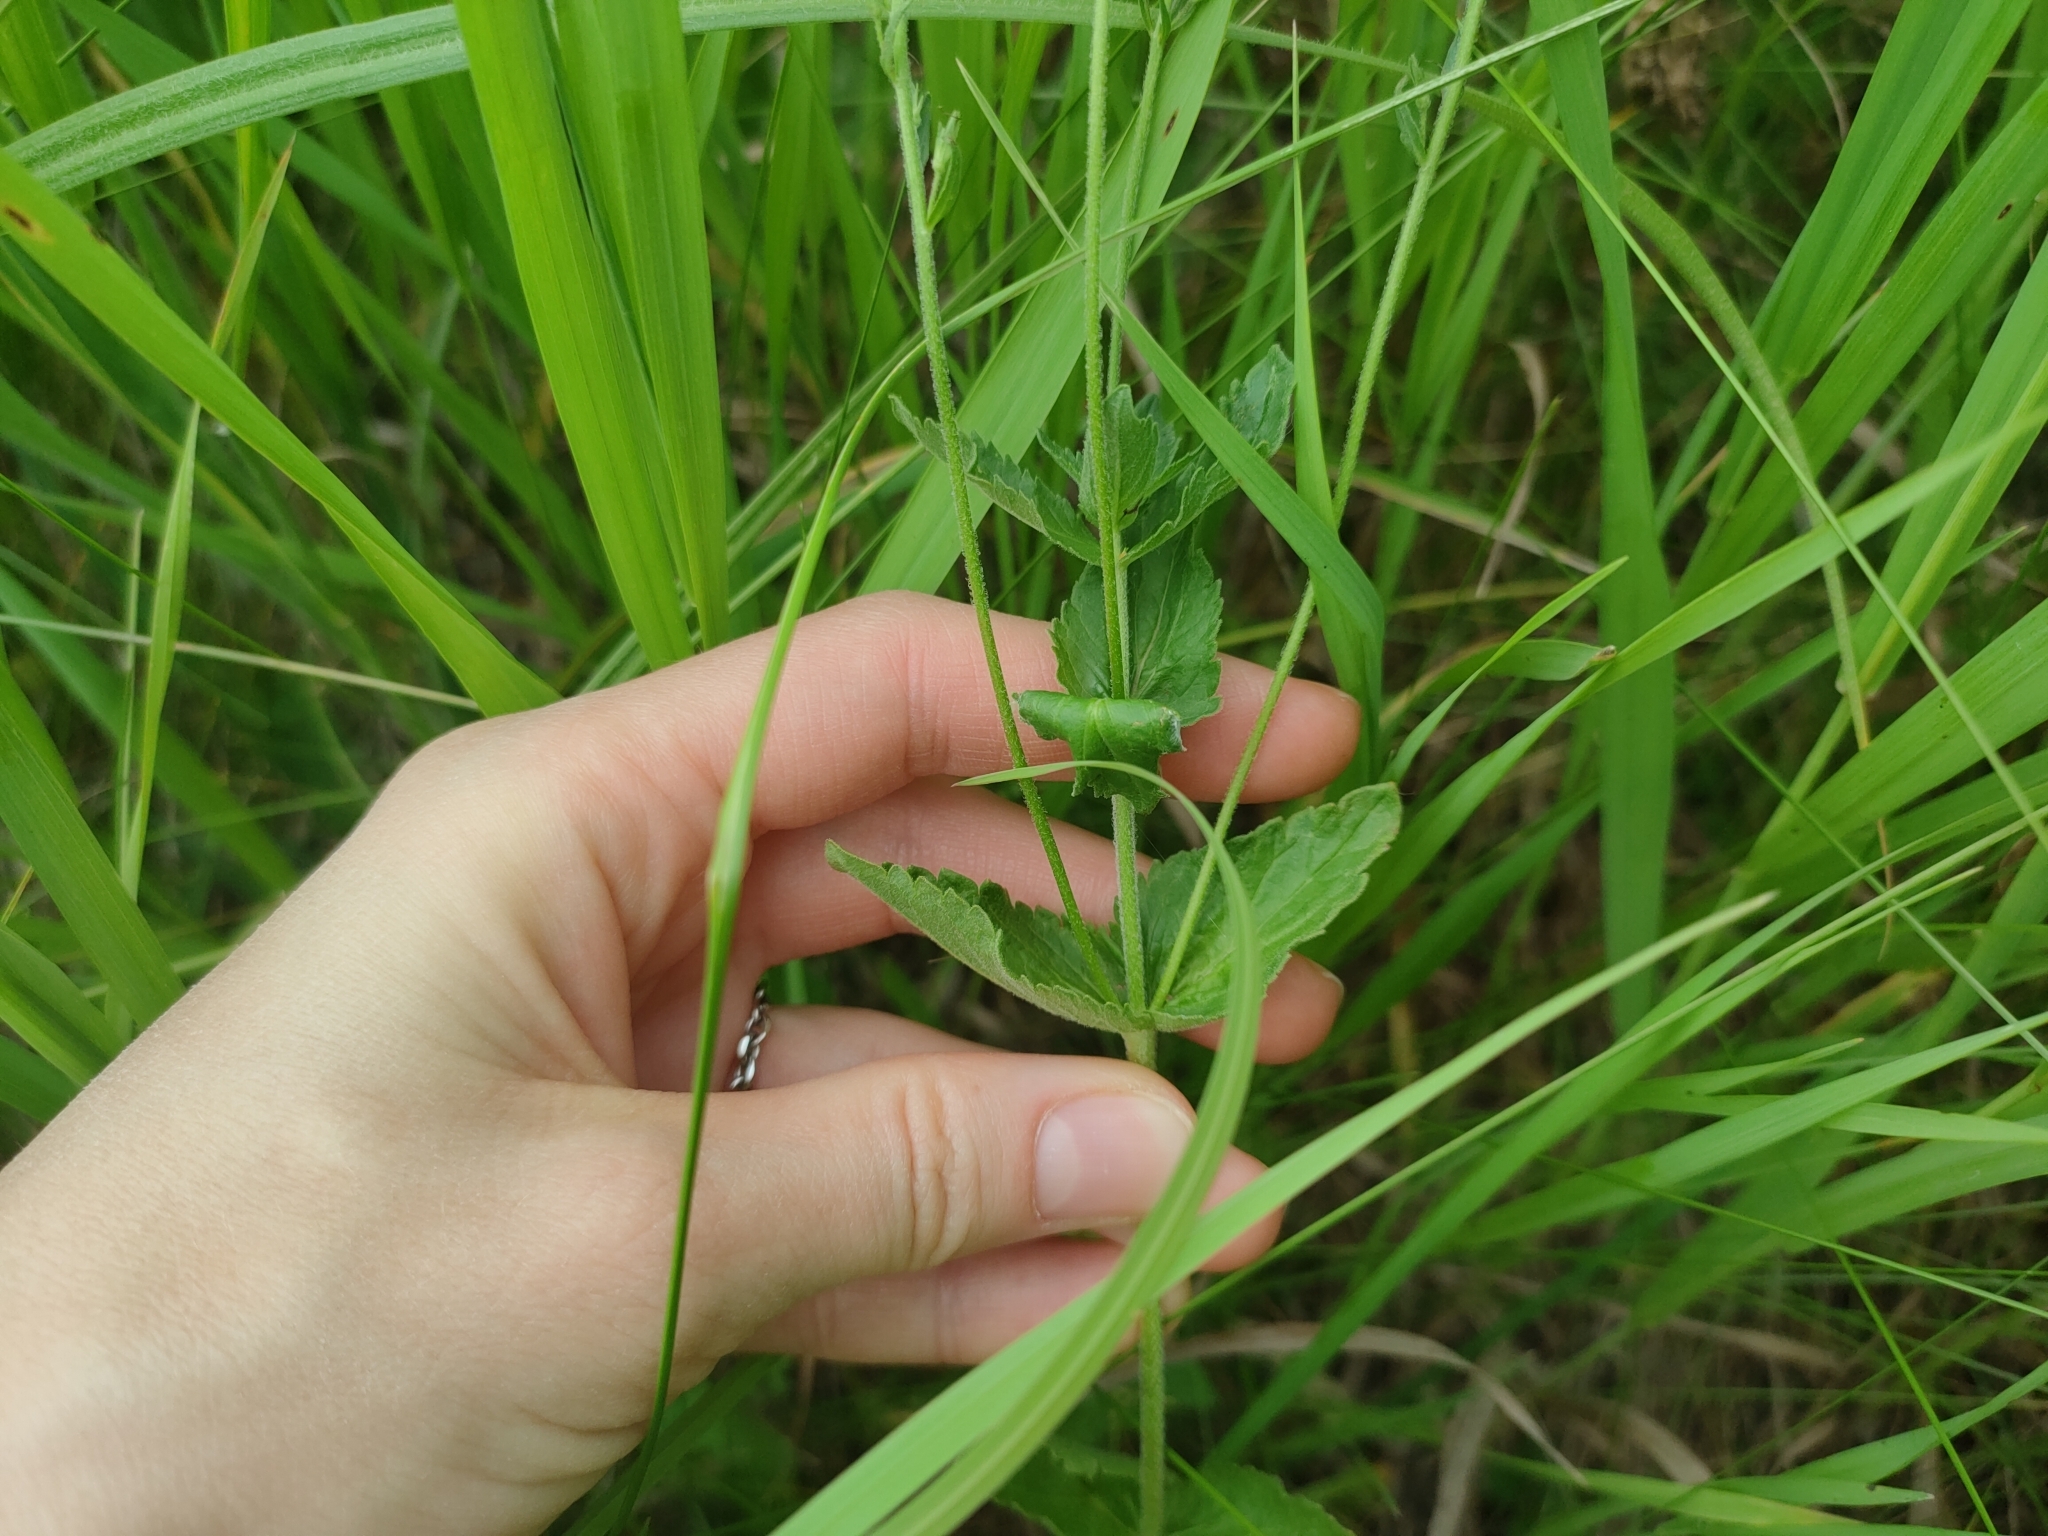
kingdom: Plantae
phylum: Tracheophyta
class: Magnoliopsida
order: Lamiales
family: Plantaginaceae
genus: Veronica
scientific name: Veronica teucrium
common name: Large speedwell
